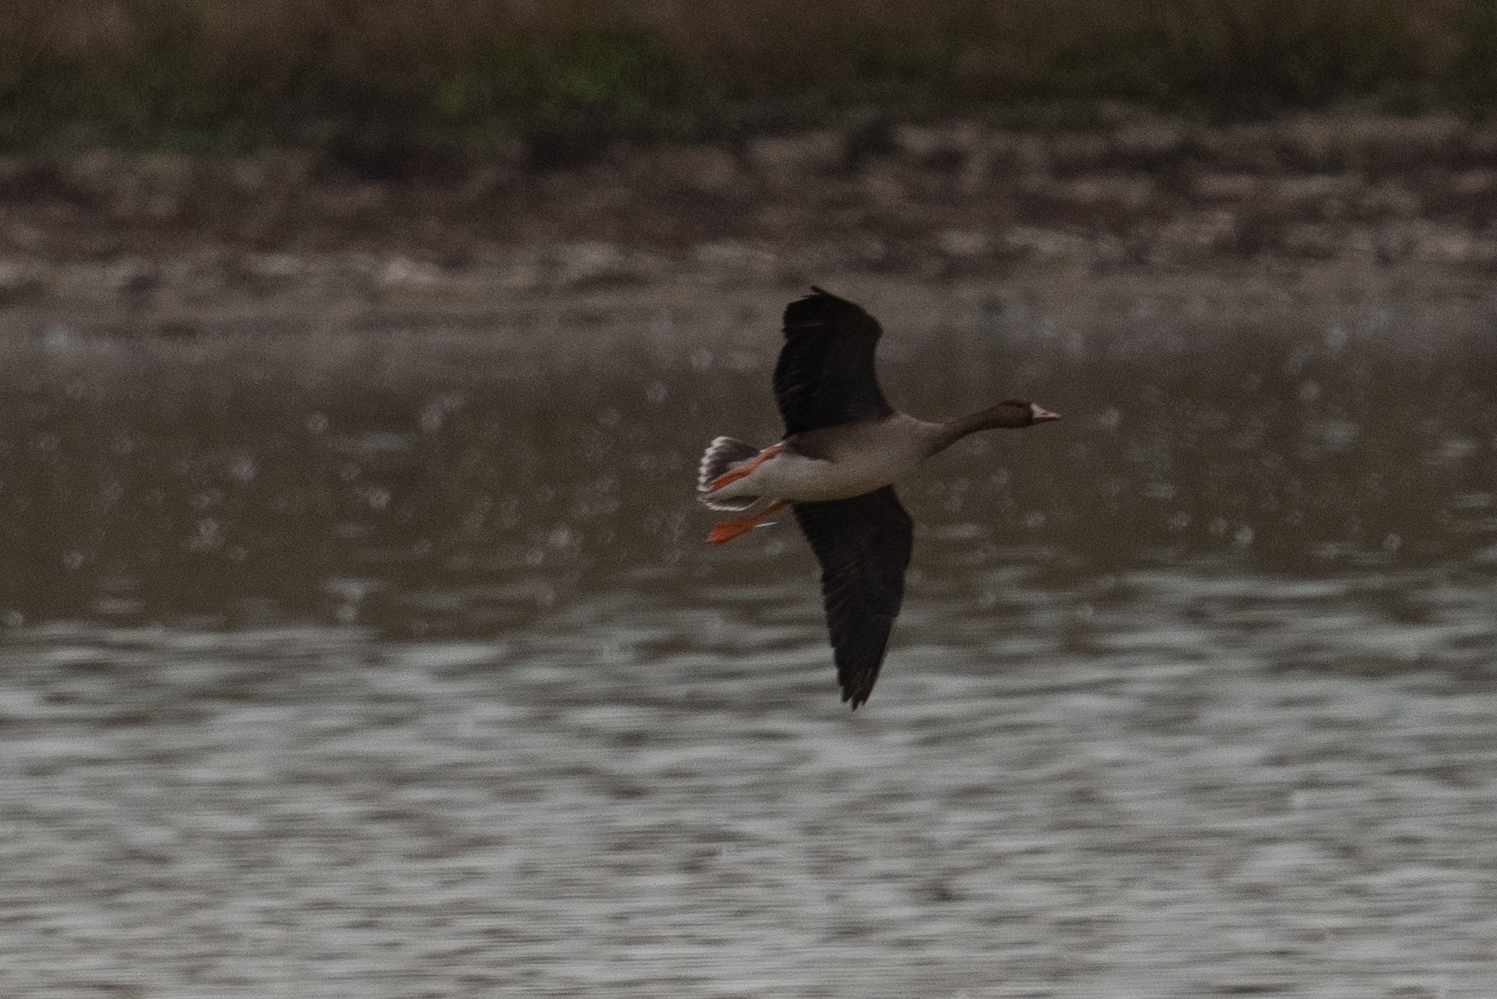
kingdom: Animalia
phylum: Chordata
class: Aves
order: Anseriformes
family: Anatidae
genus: Anser
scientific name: Anser albifrons
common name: Greater white-fronted goose
